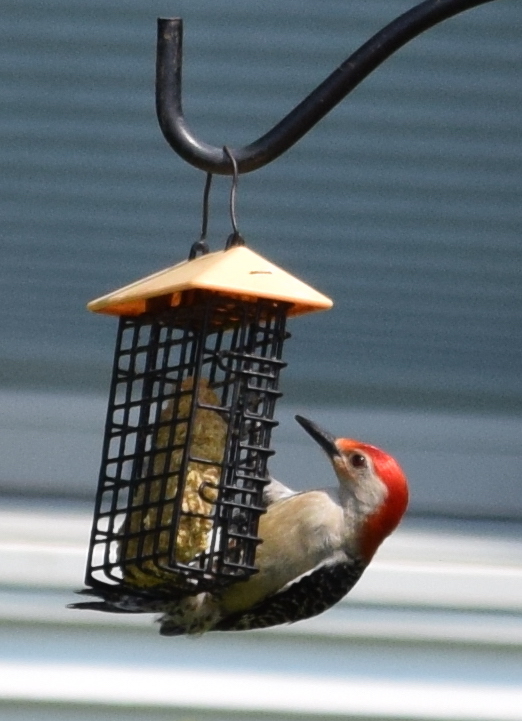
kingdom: Animalia
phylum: Chordata
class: Aves
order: Piciformes
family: Picidae
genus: Melanerpes
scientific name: Melanerpes carolinus
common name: Red-bellied woodpecker
